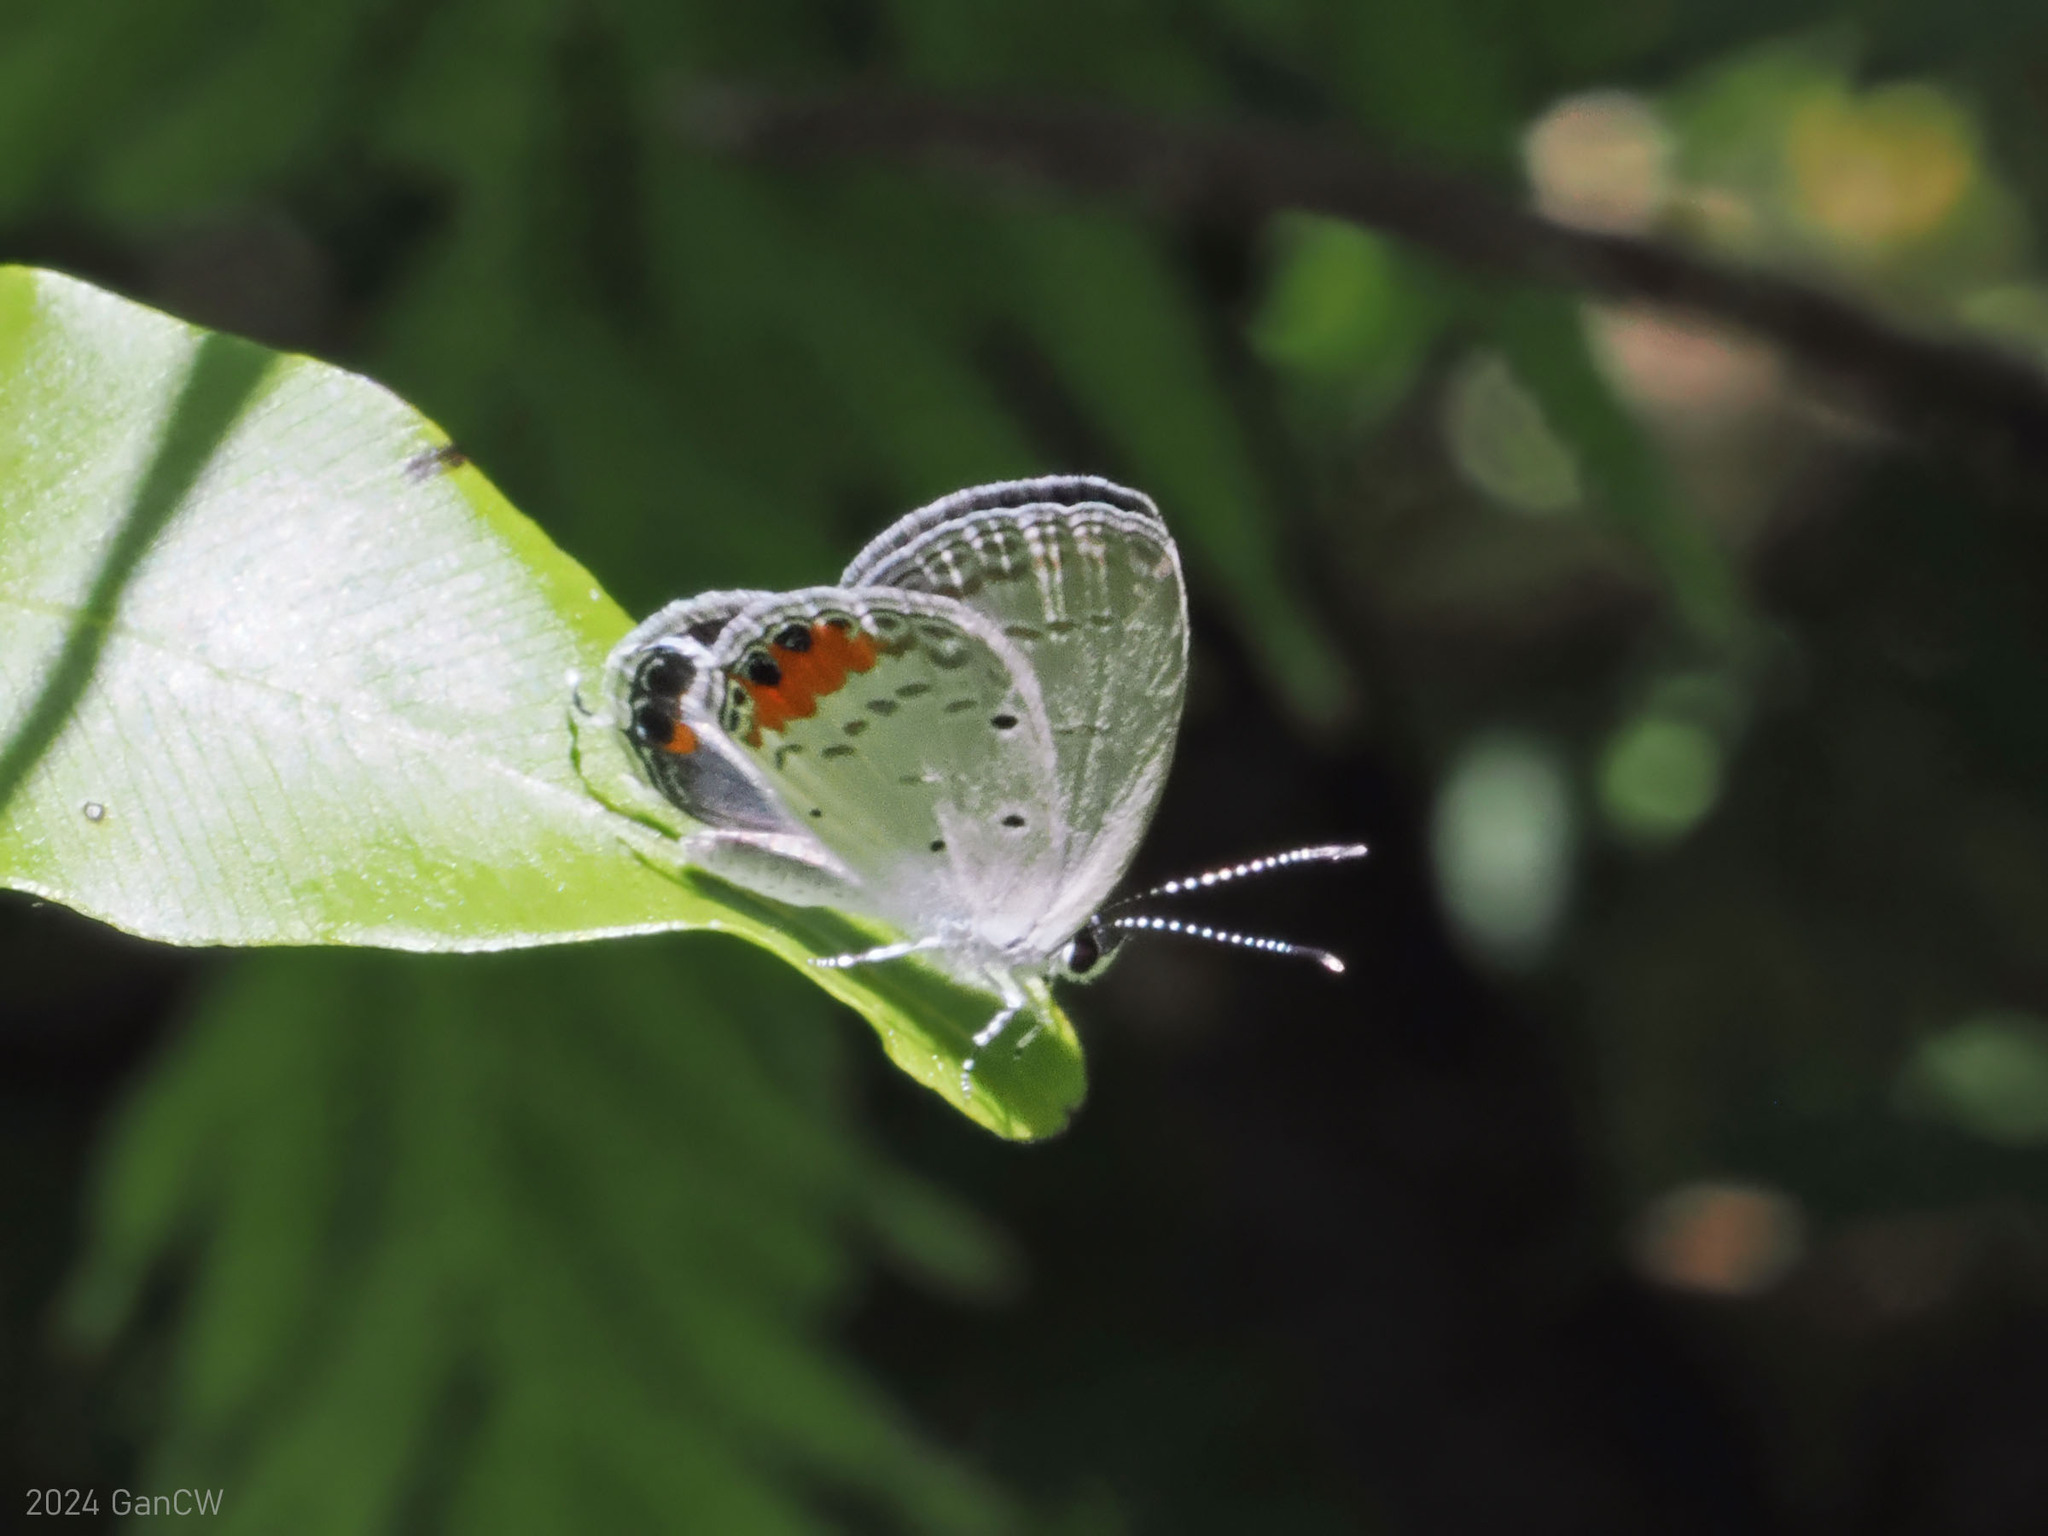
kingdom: Animalia
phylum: Arthropoda
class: Insecta
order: Lepidoptera
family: Lycaenidae
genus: Everes
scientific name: Everes lacturnus
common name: Orange-tipped pea-blue
